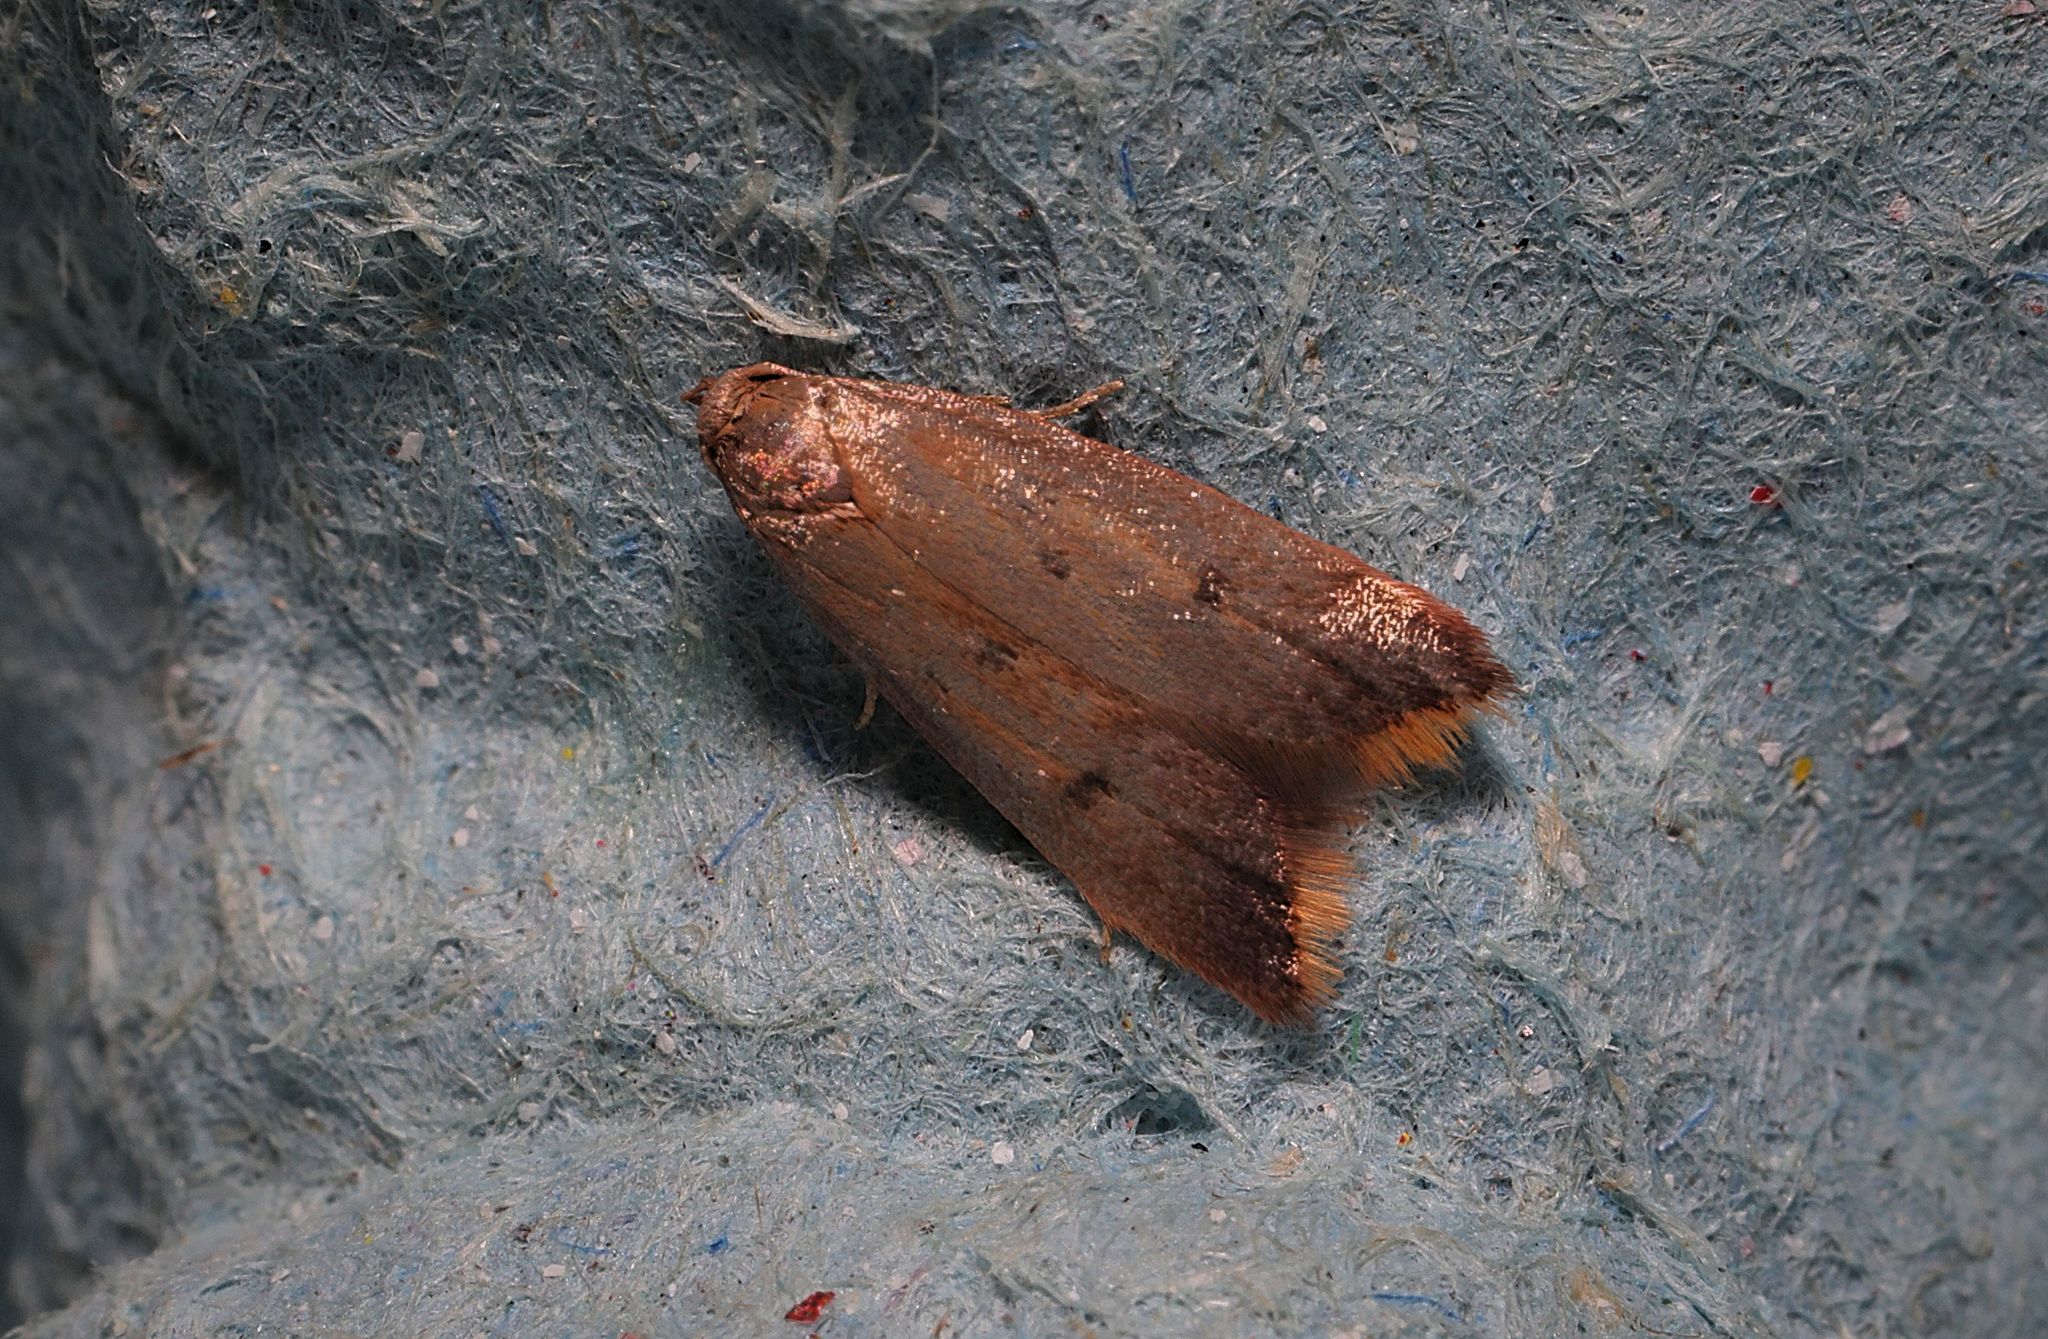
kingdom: Animalia
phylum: Arthropoda
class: Insecta
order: Lepidoptera
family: Oecophoridae
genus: Tachystola
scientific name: Tachystola acroxantha
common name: Ruddy streak
